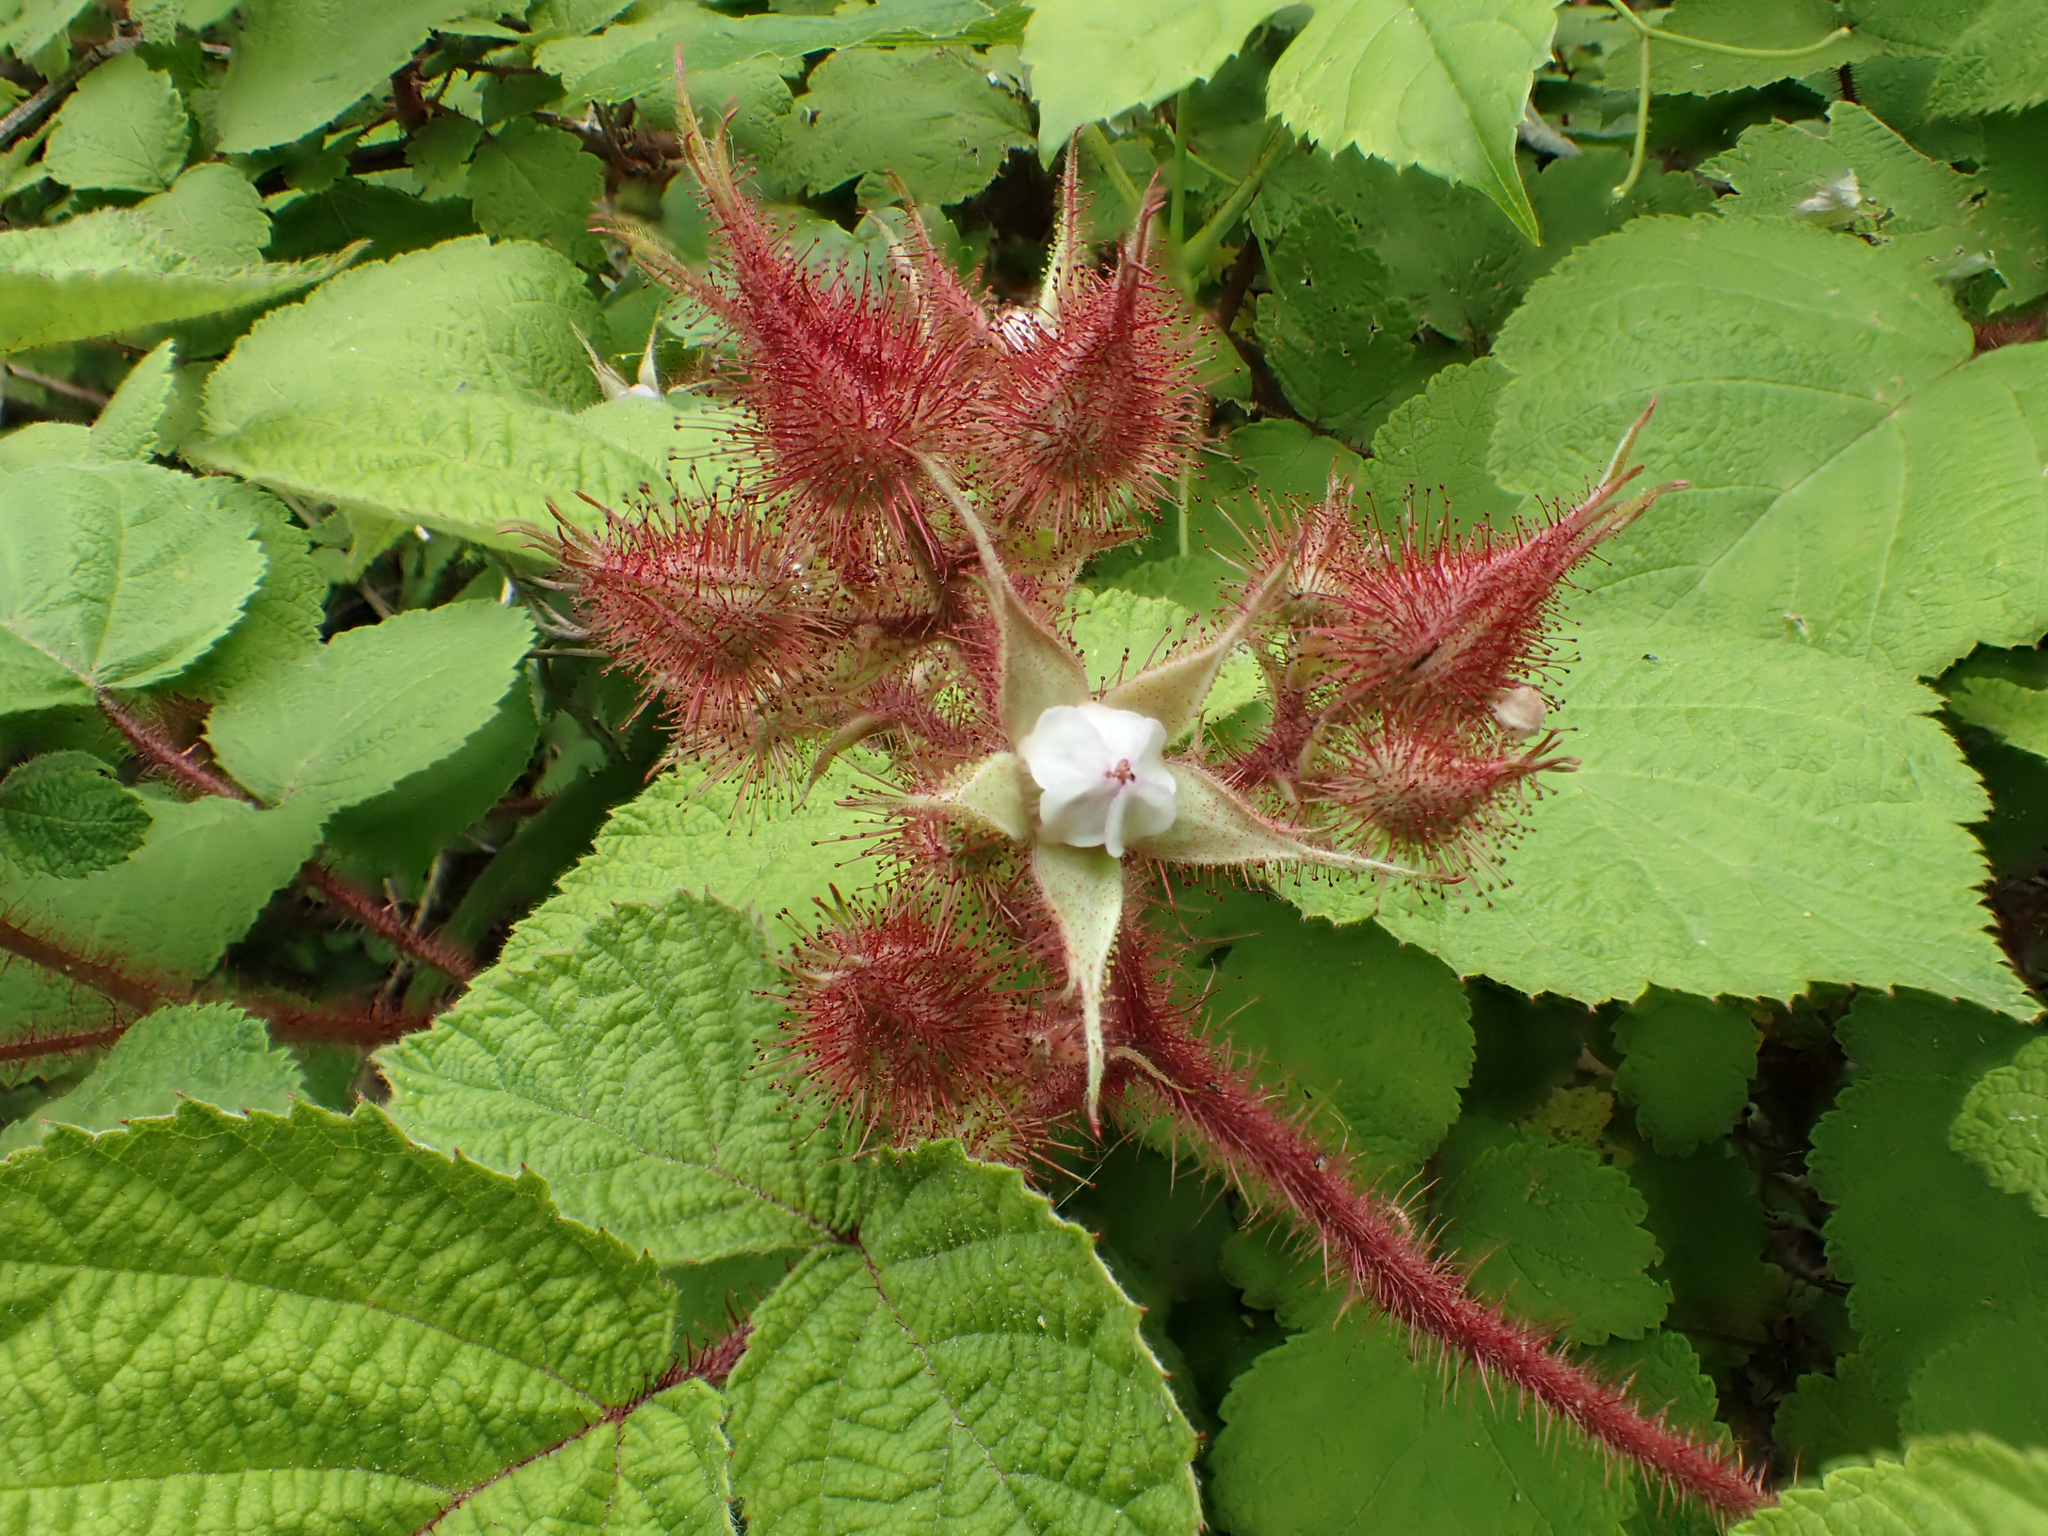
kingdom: Plantae
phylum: Tracheophyta
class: Magnoliopsida
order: Rosales
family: Rosaceae
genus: Rubus
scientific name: Rubus phoenicolasius
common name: Japanese wineberry
